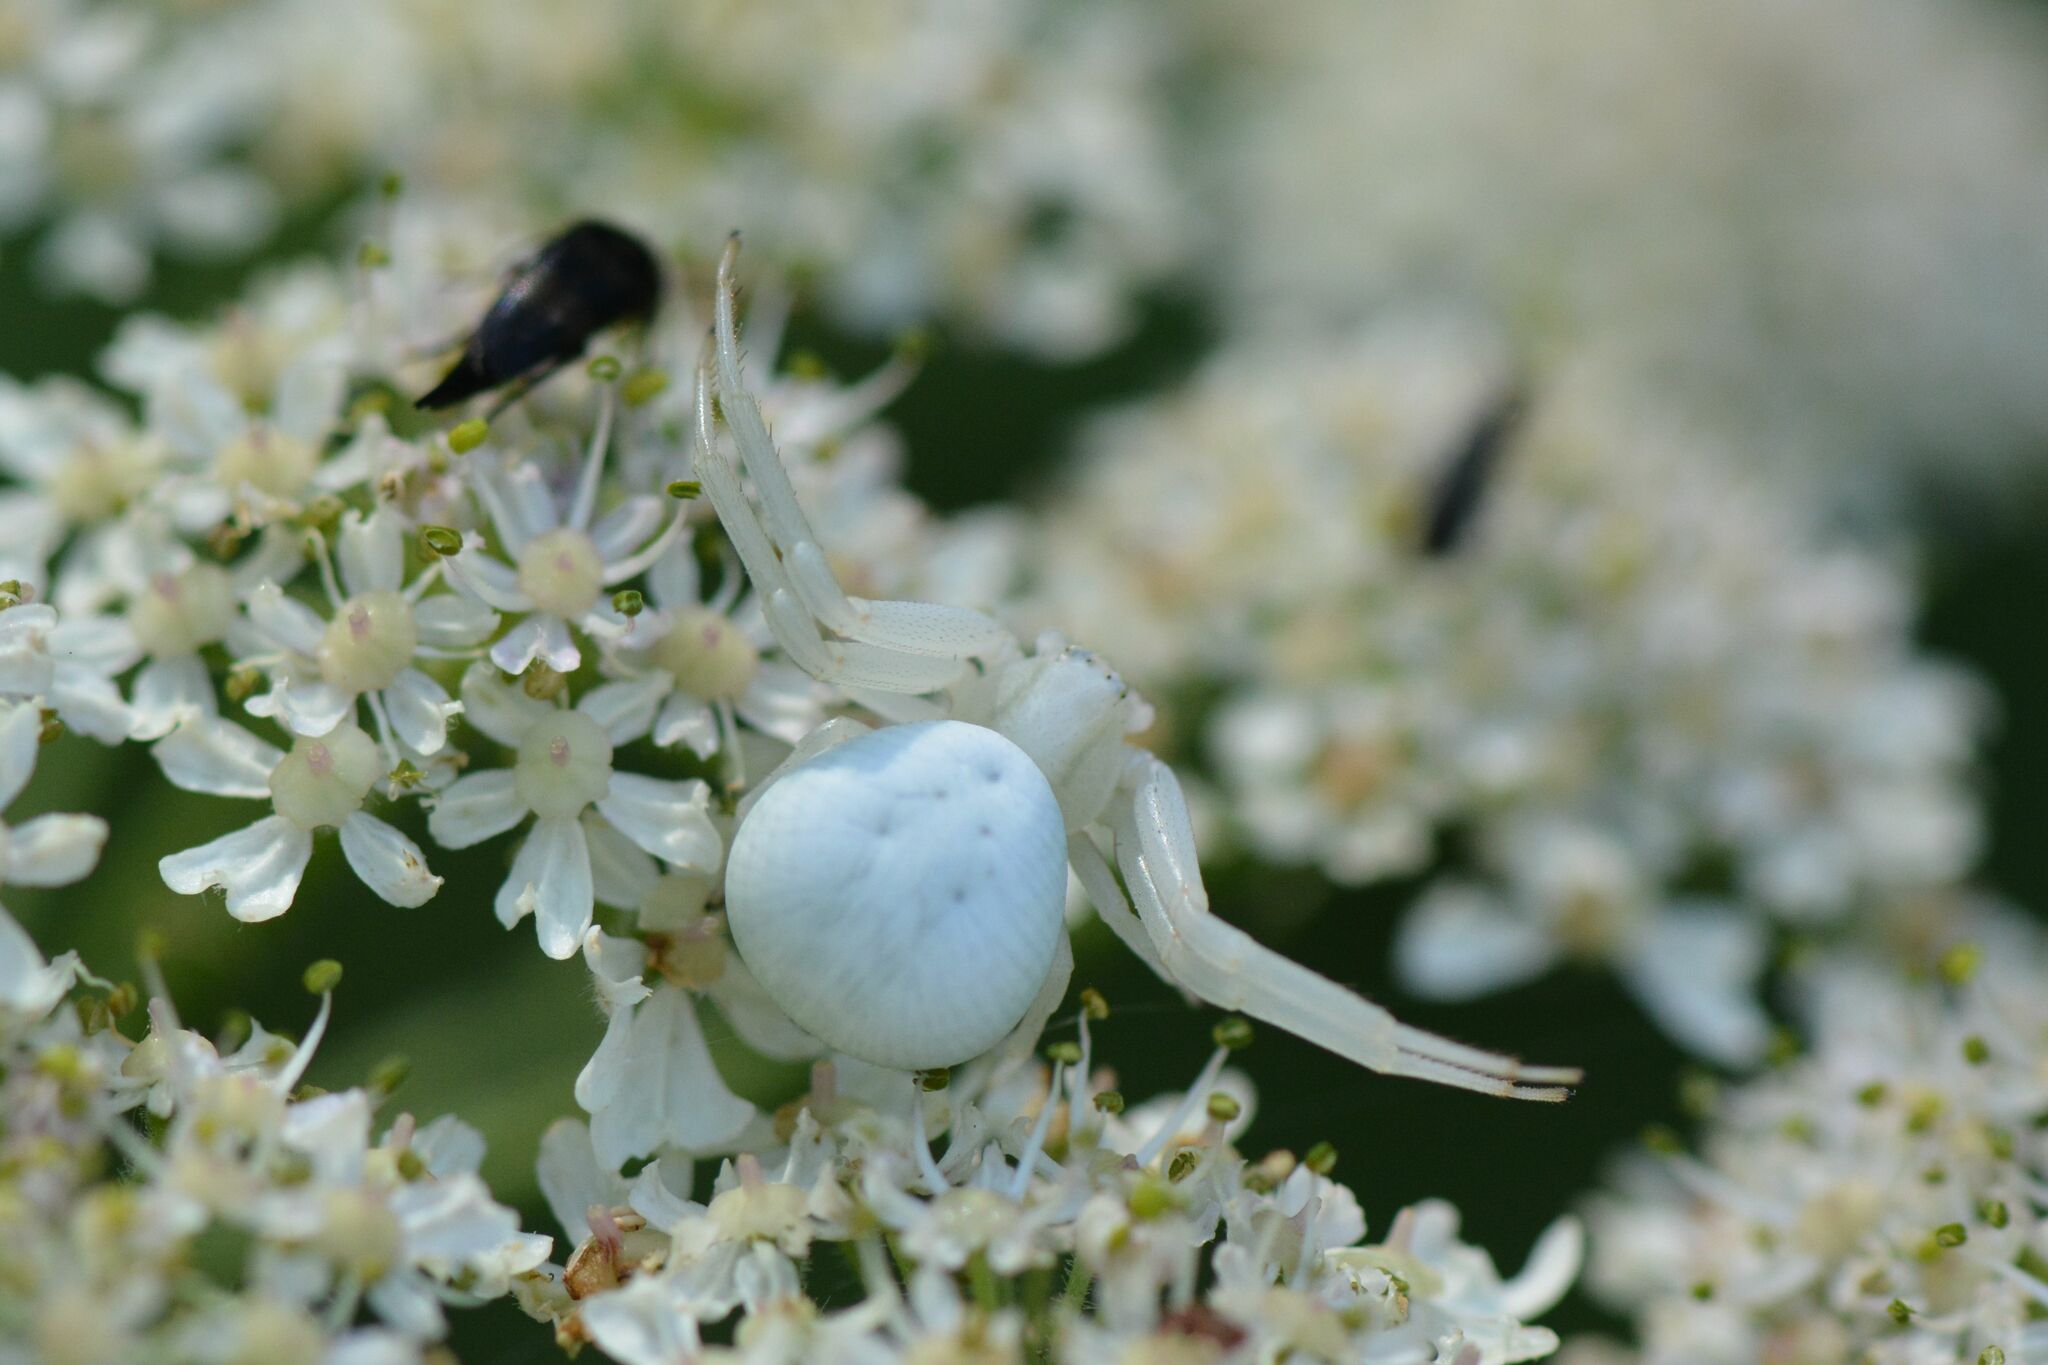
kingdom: Animalia
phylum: Arthropoda
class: Arachnida
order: Araneae
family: Thomisidae
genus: Misumena
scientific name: Misumena vatia
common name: Goldenrod crab spider
